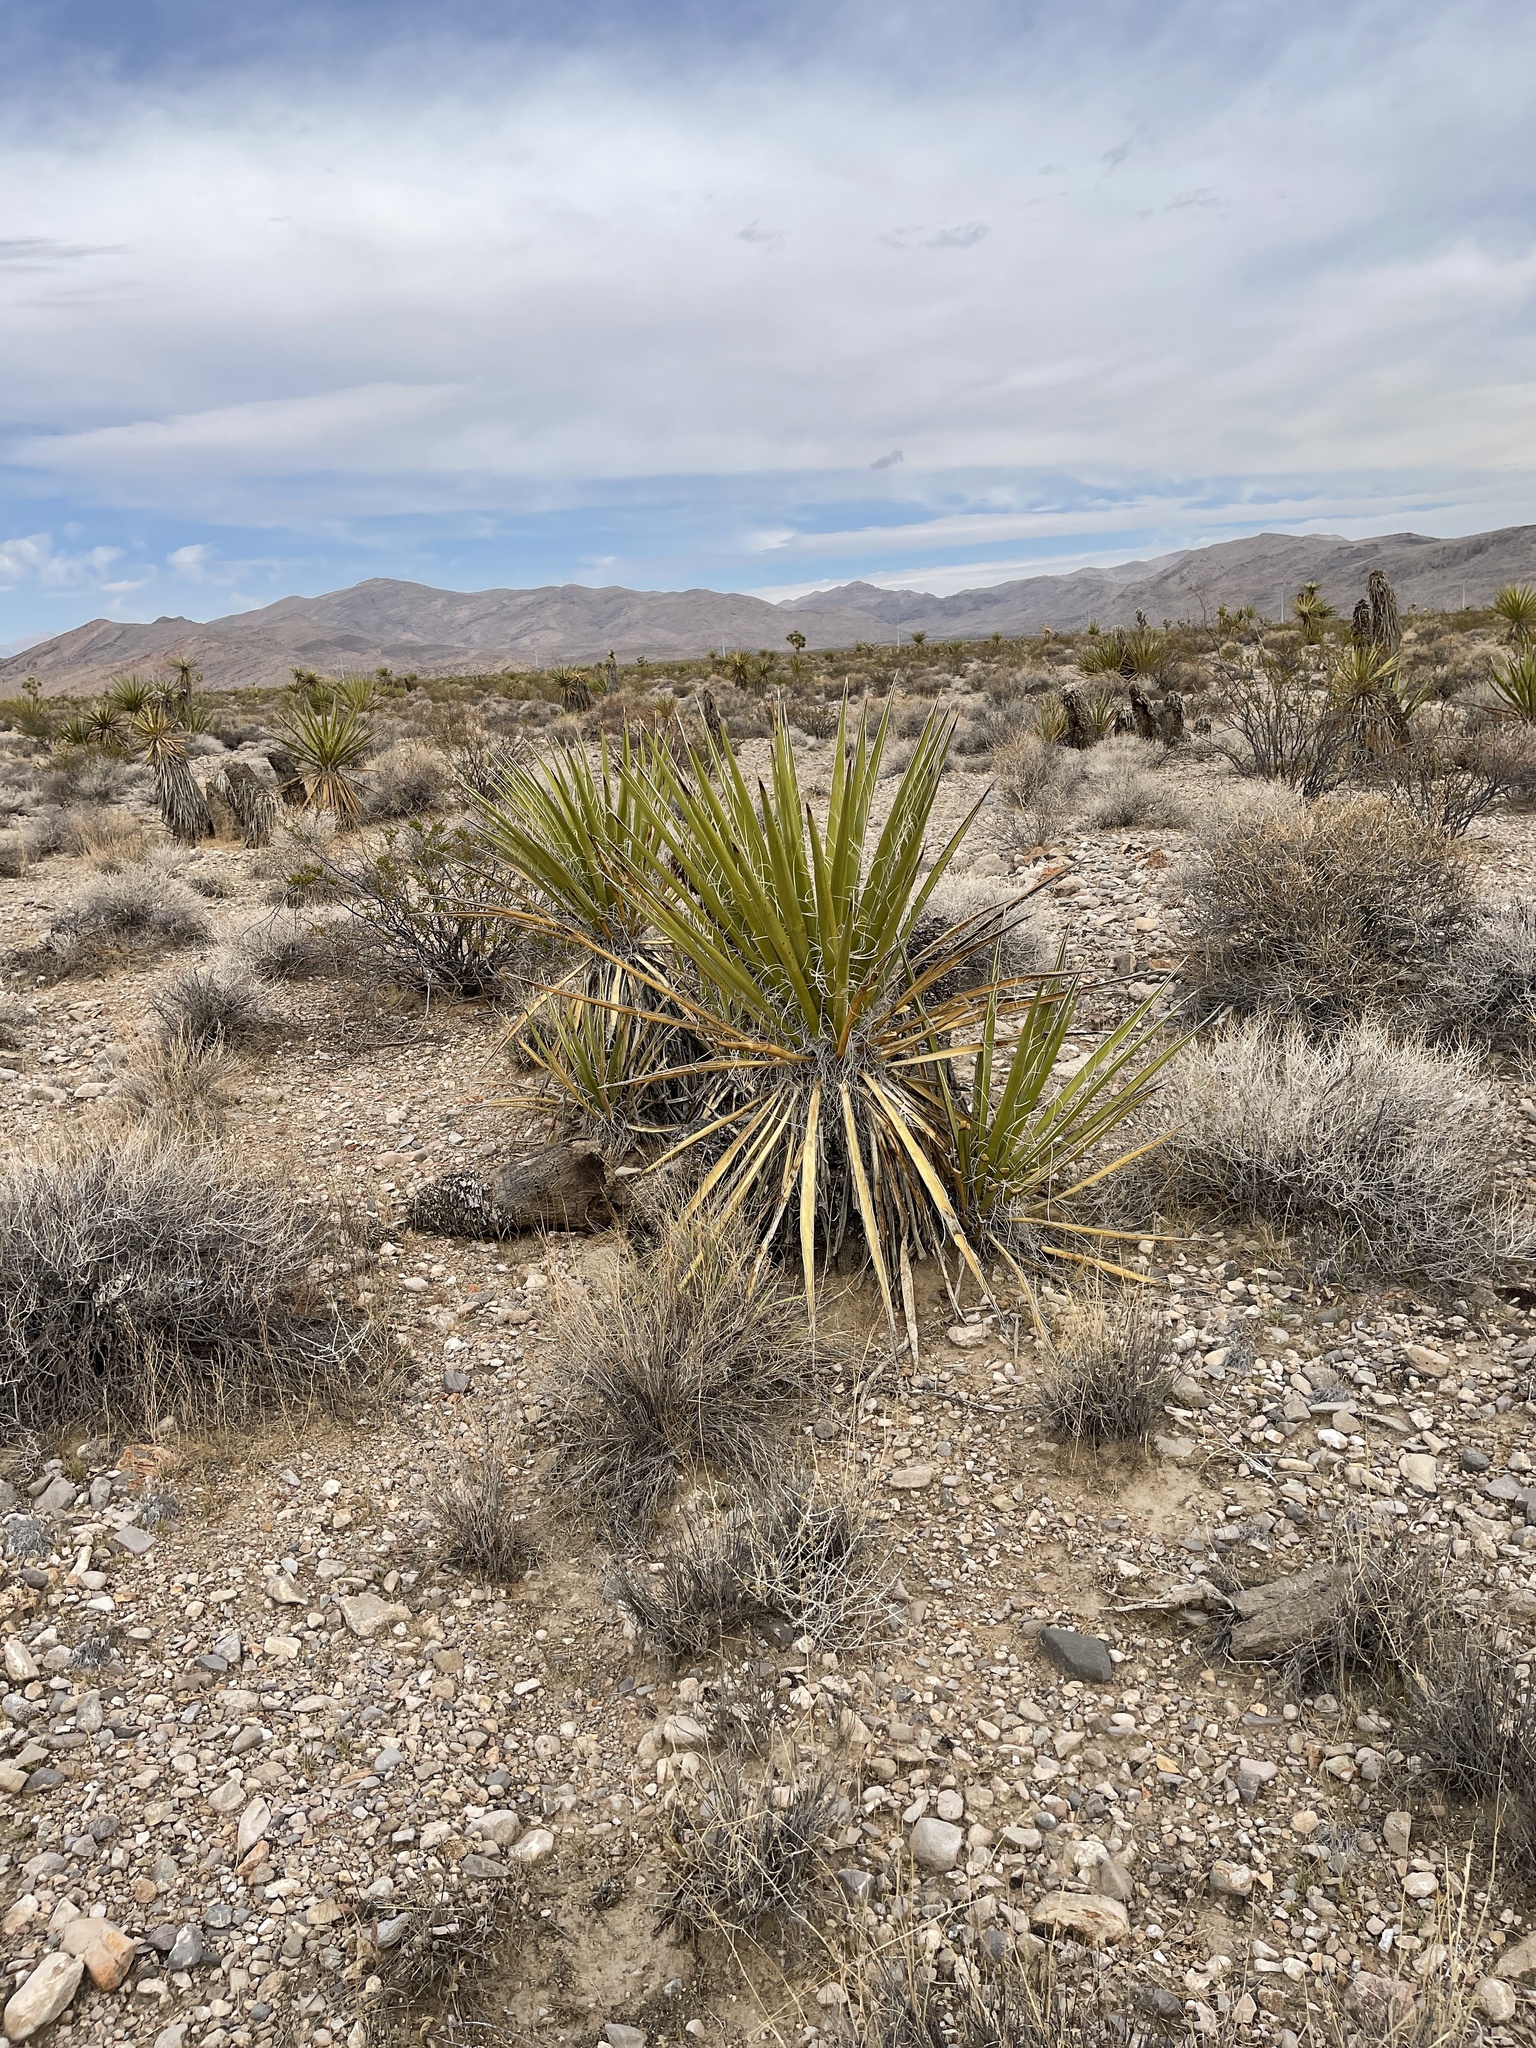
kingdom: Plantae
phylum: Tracheophyta
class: Liliopsida
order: Asparagales
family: Asparagaceae
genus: Yucca
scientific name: Yucca schidigera
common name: Mojave yucca
